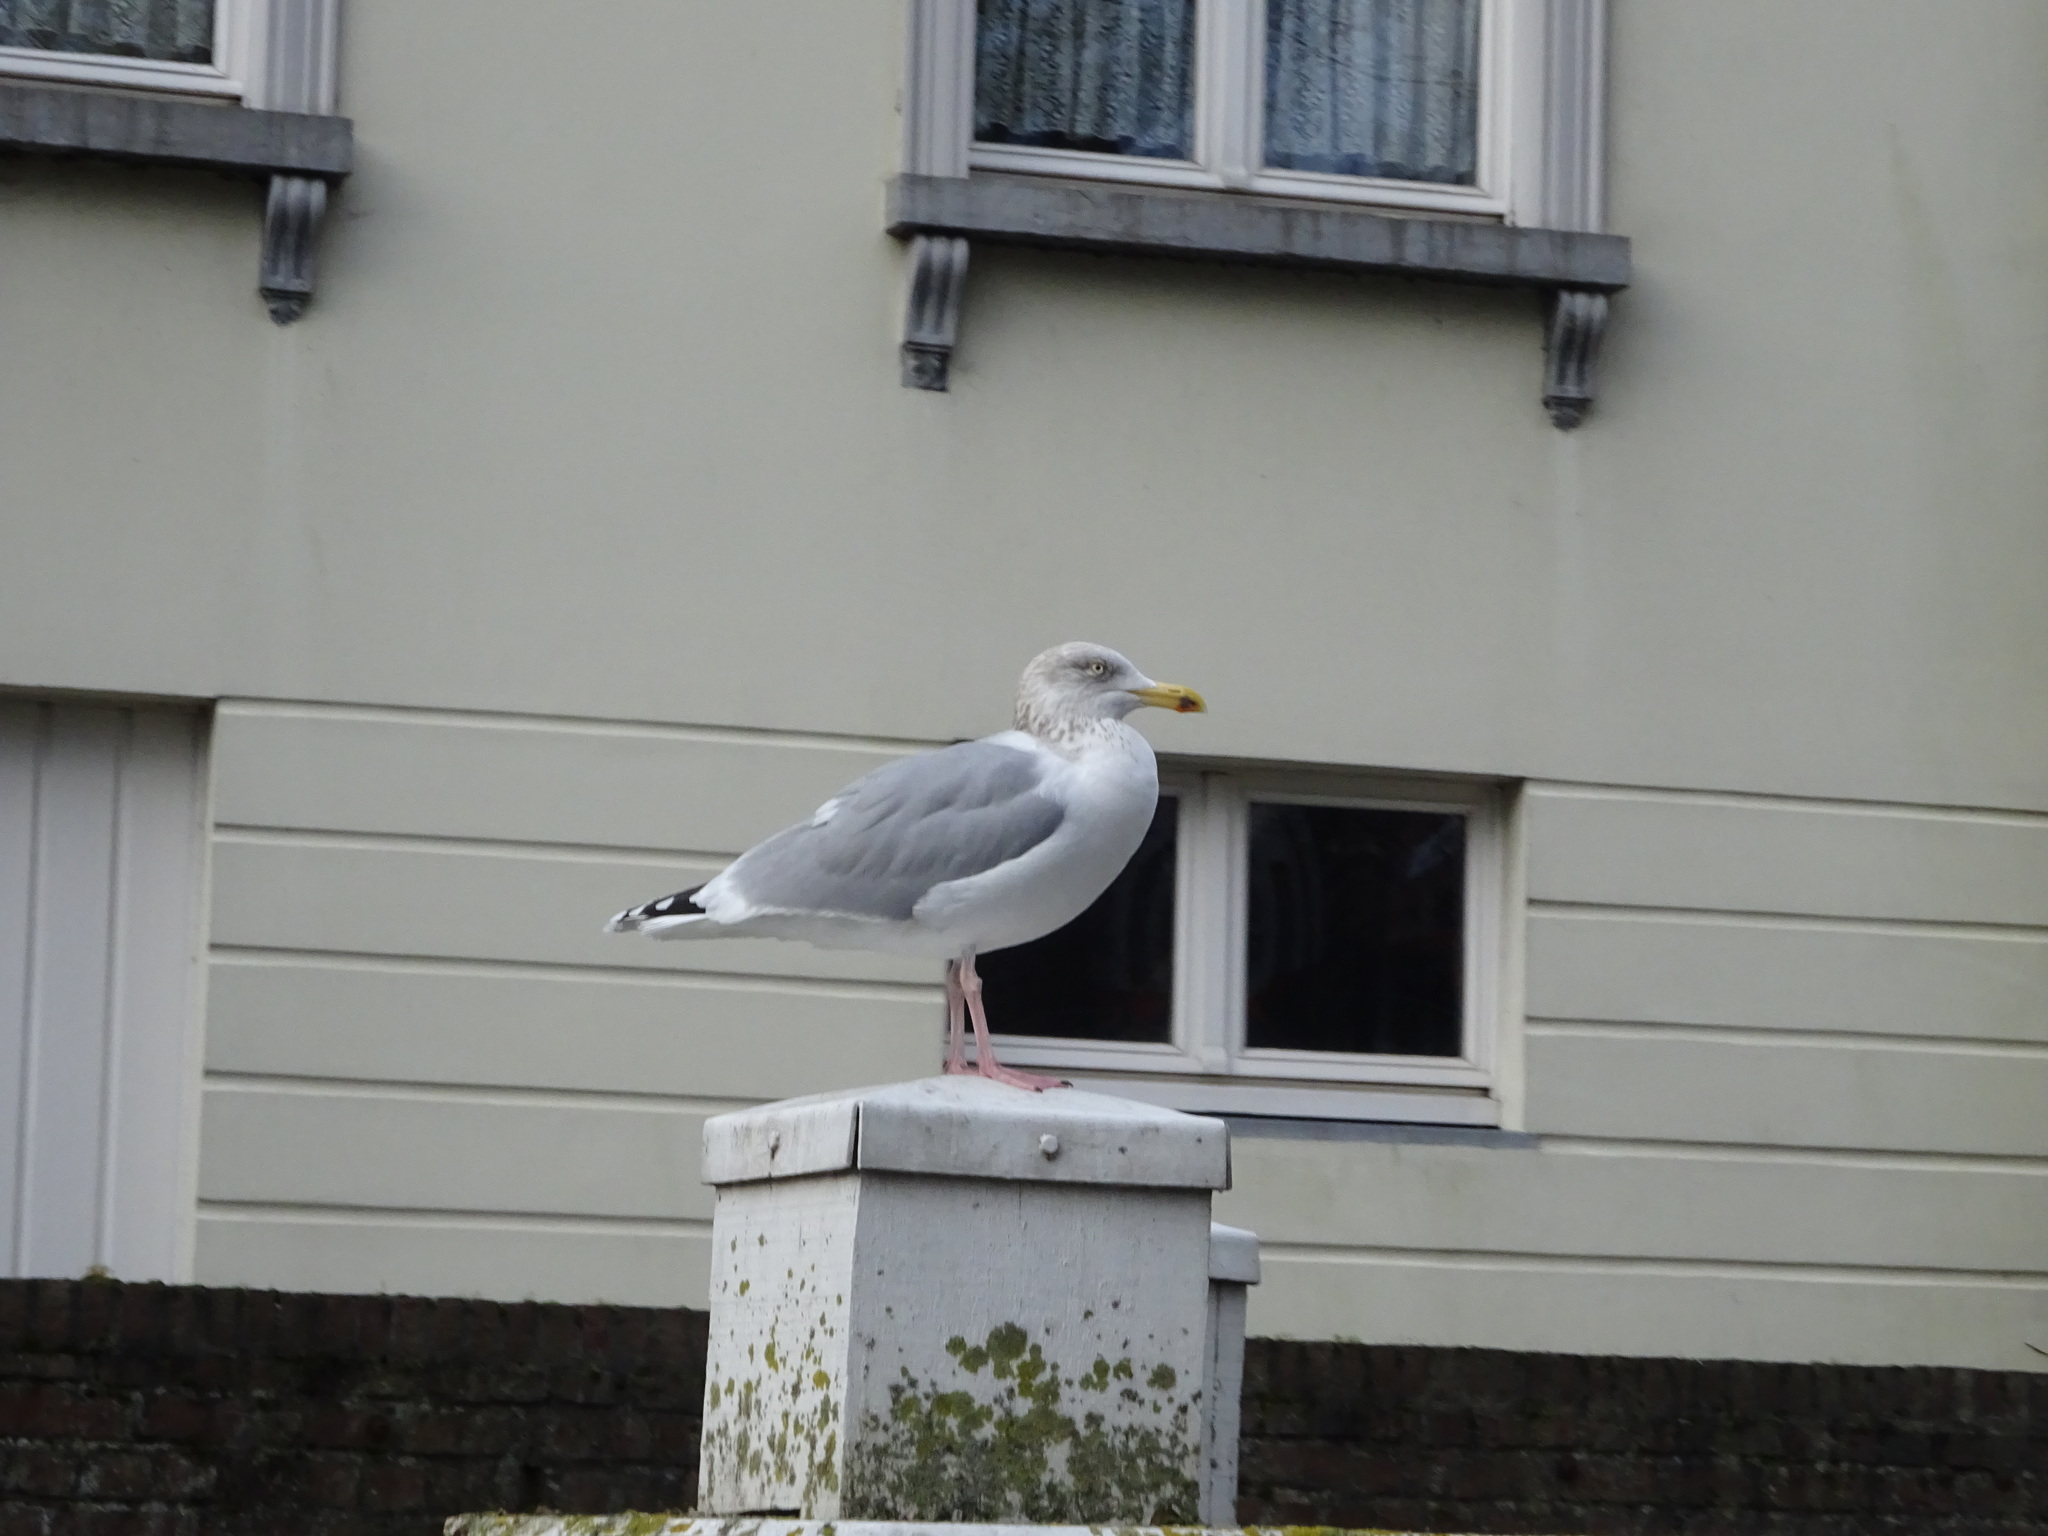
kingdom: Animalia
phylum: Chordata
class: Aves
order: Charadriiformes
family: Laridae
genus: Larus
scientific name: Larus argentatus
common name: Herring gull
